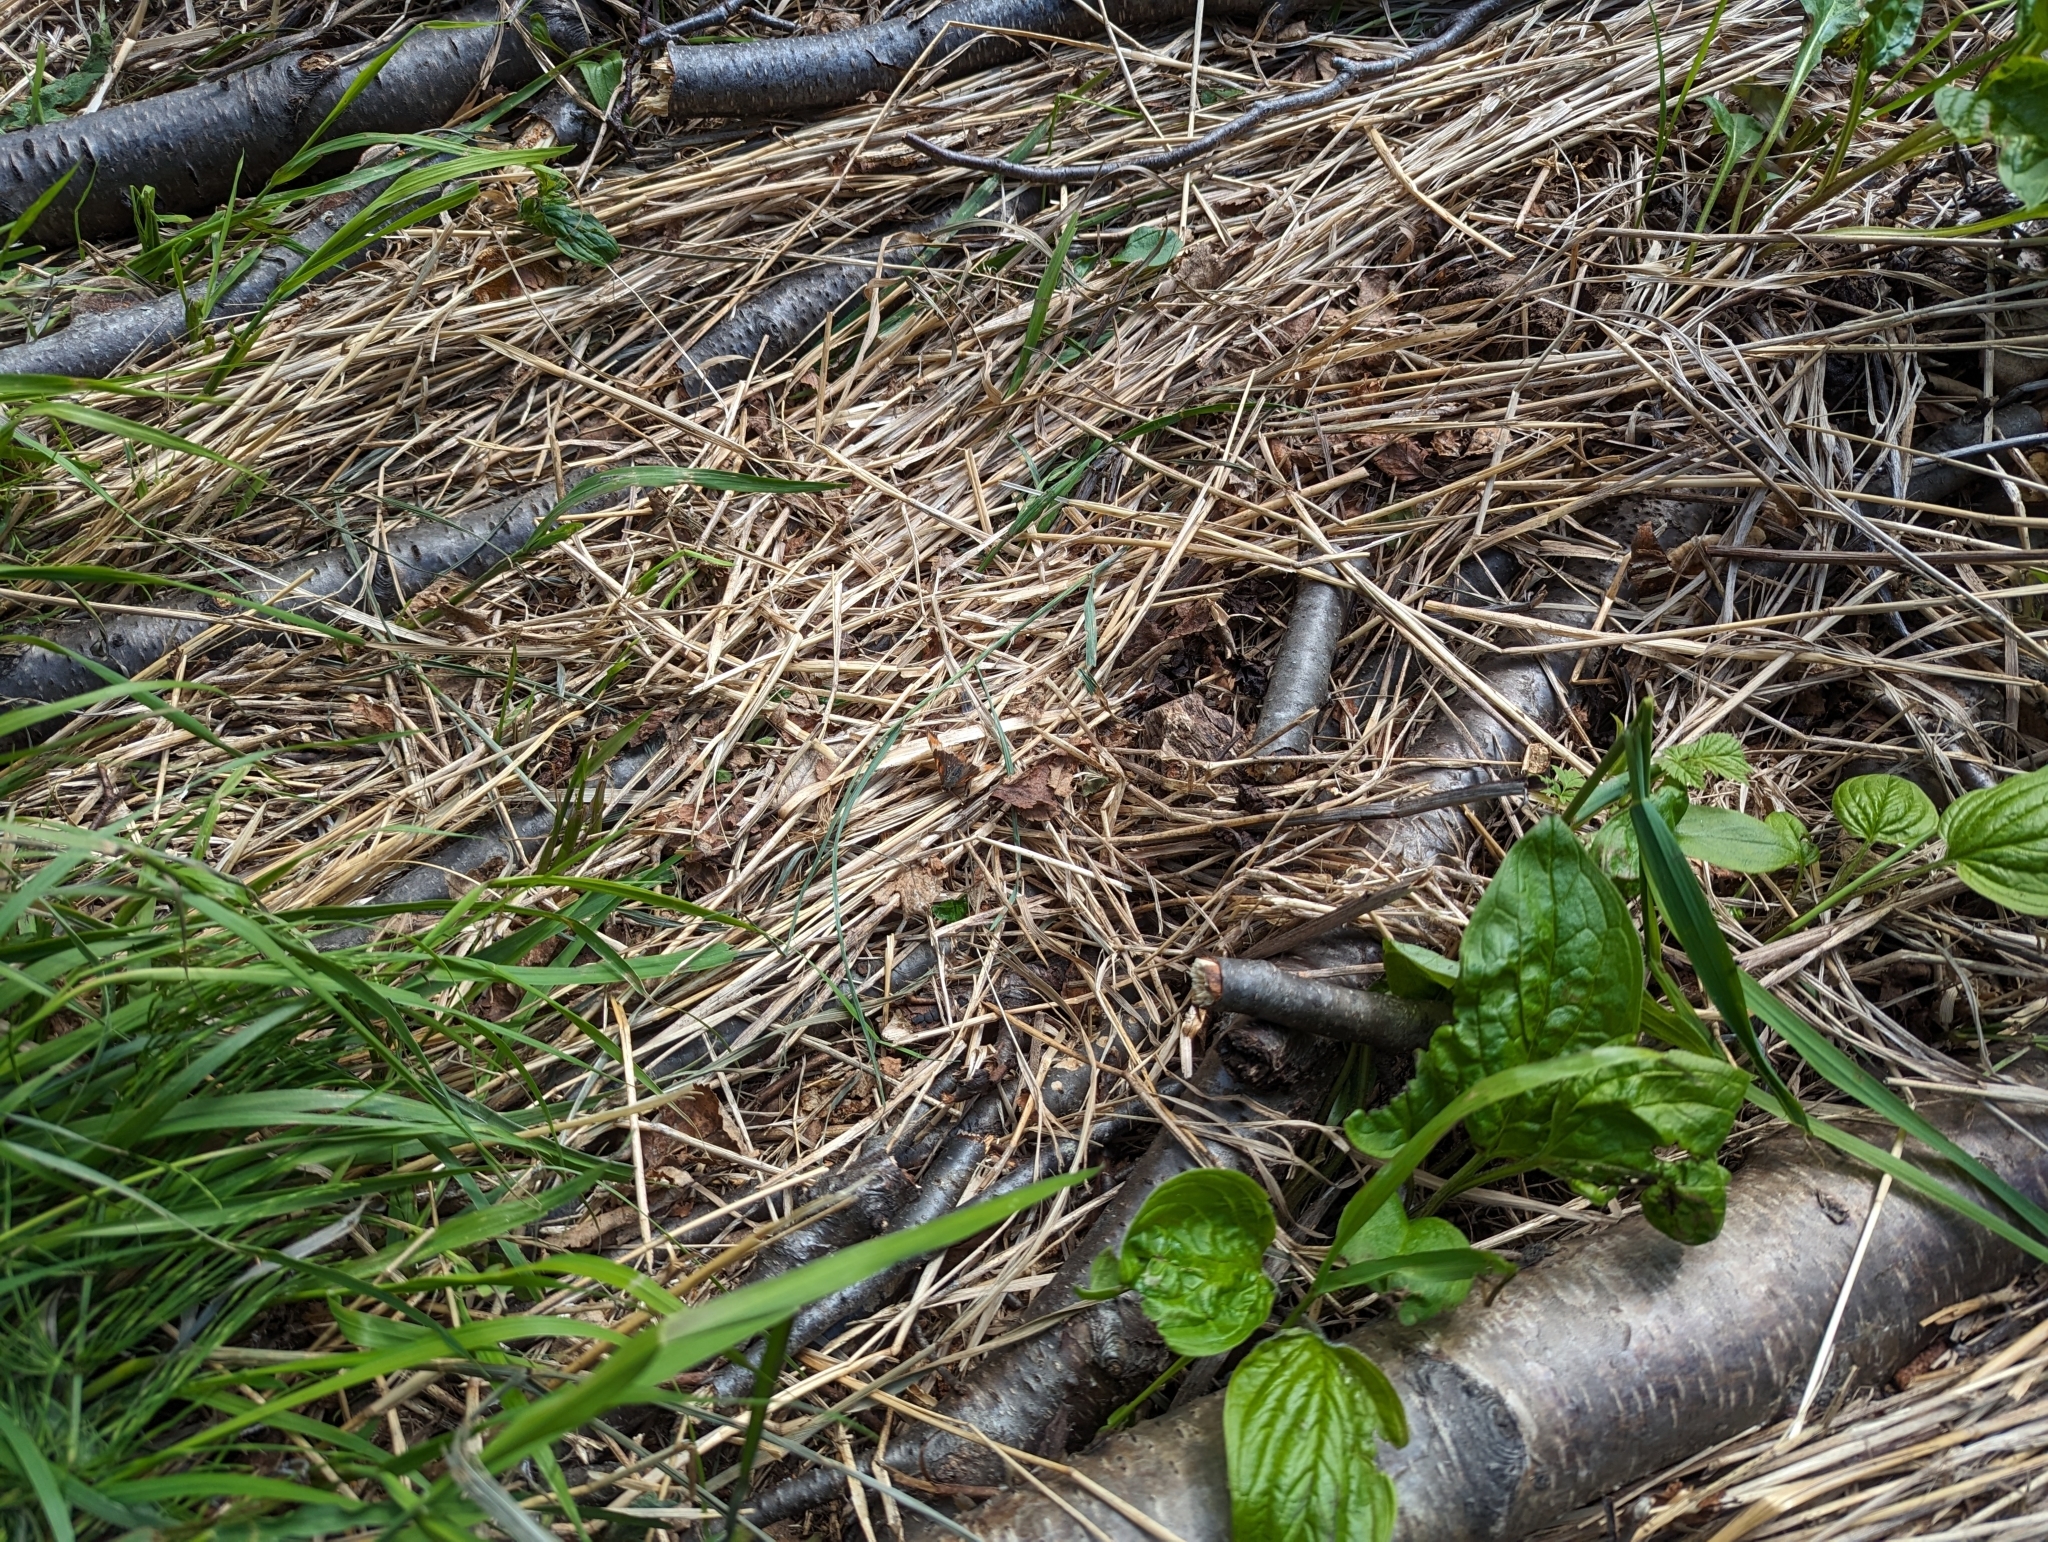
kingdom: Animalia
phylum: Arthropoda
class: Insecta
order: Lepidoptera
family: Nymphalidae
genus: Aglais
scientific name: Aglais milberti
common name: Milbert's tortoiseshell
